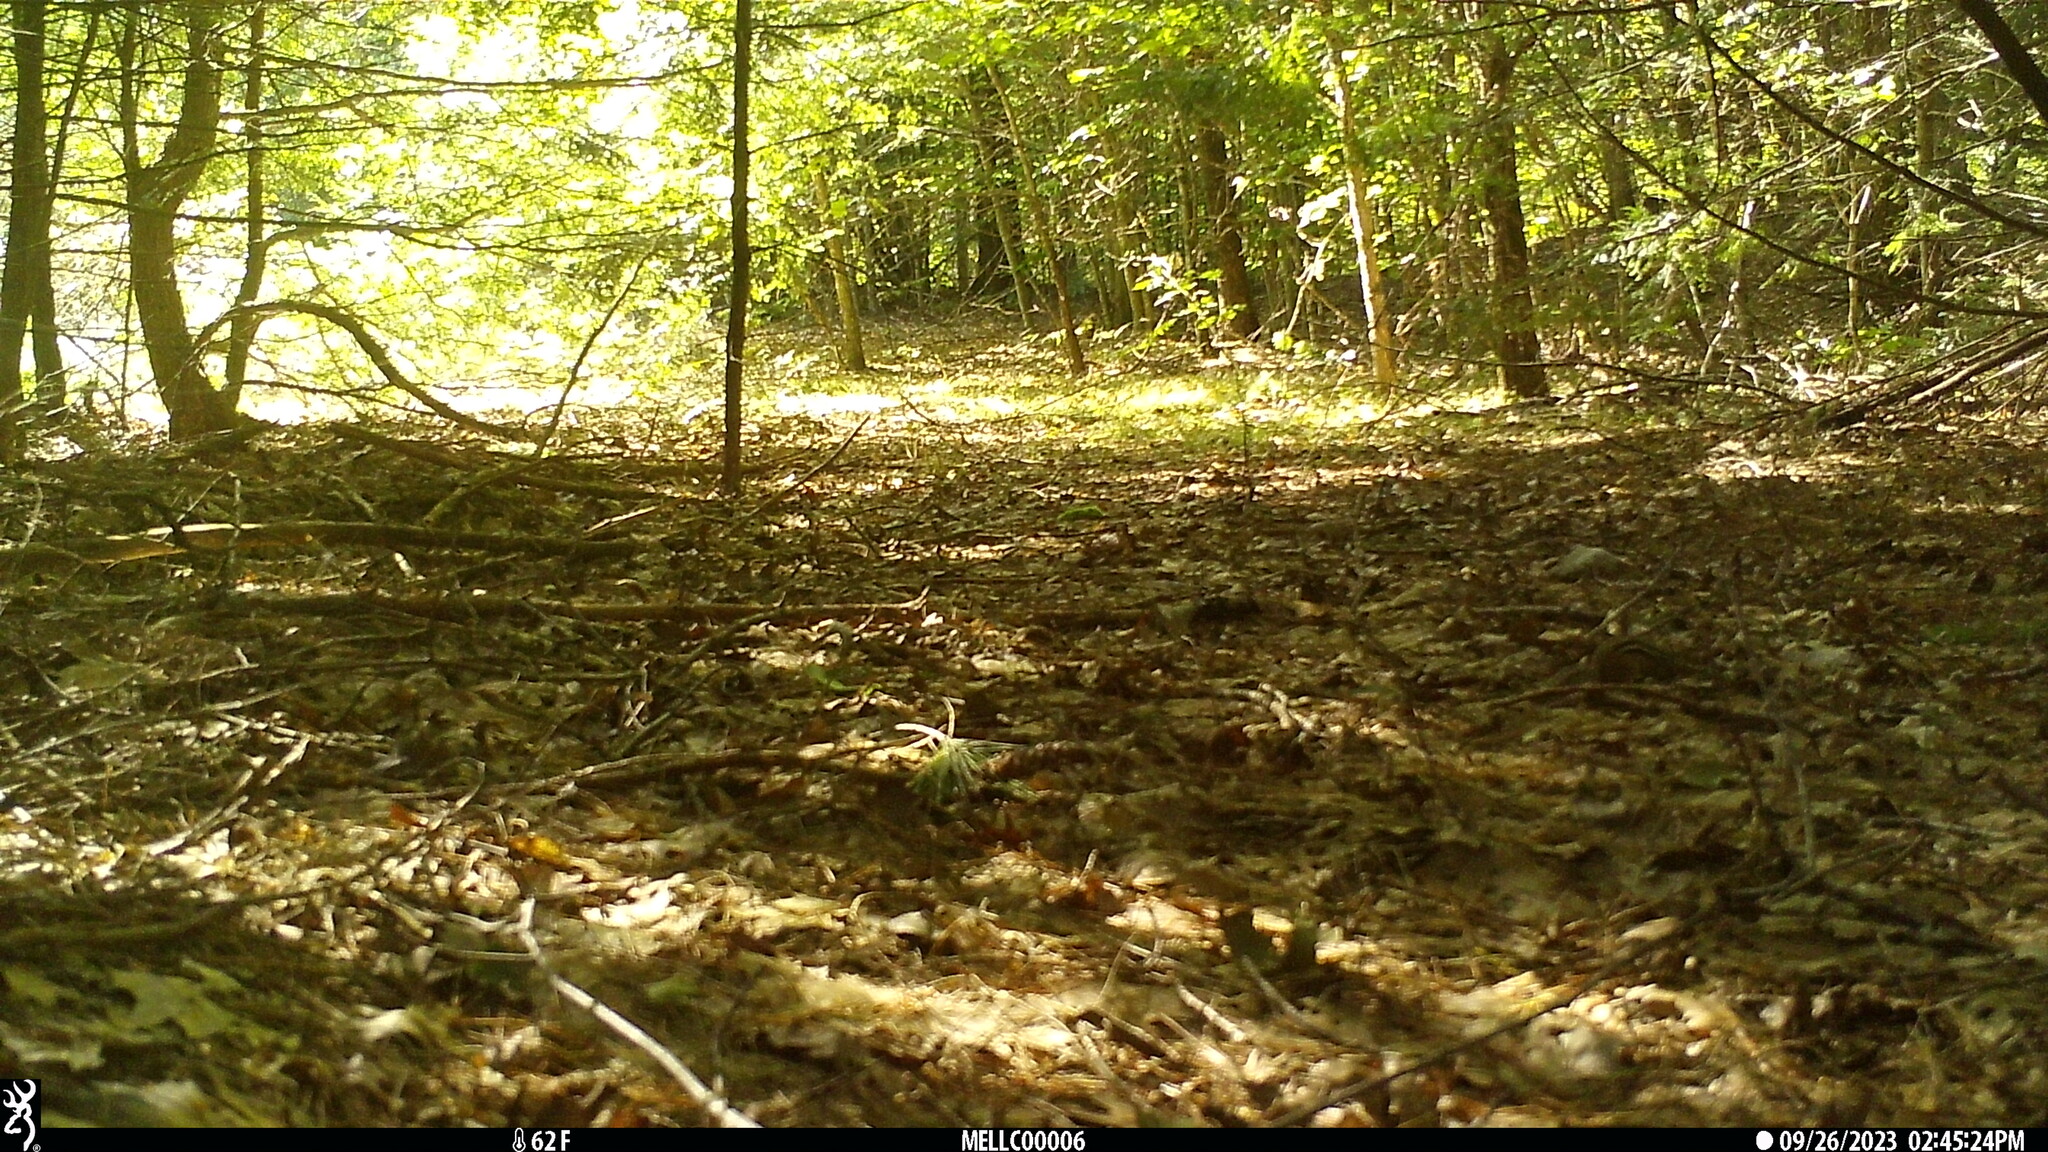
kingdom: Animalia
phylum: Chordata
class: Mammalia
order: Rodentia
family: Sciuridae
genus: Tamias
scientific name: Tamias striatus
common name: Eastern chipmunk
